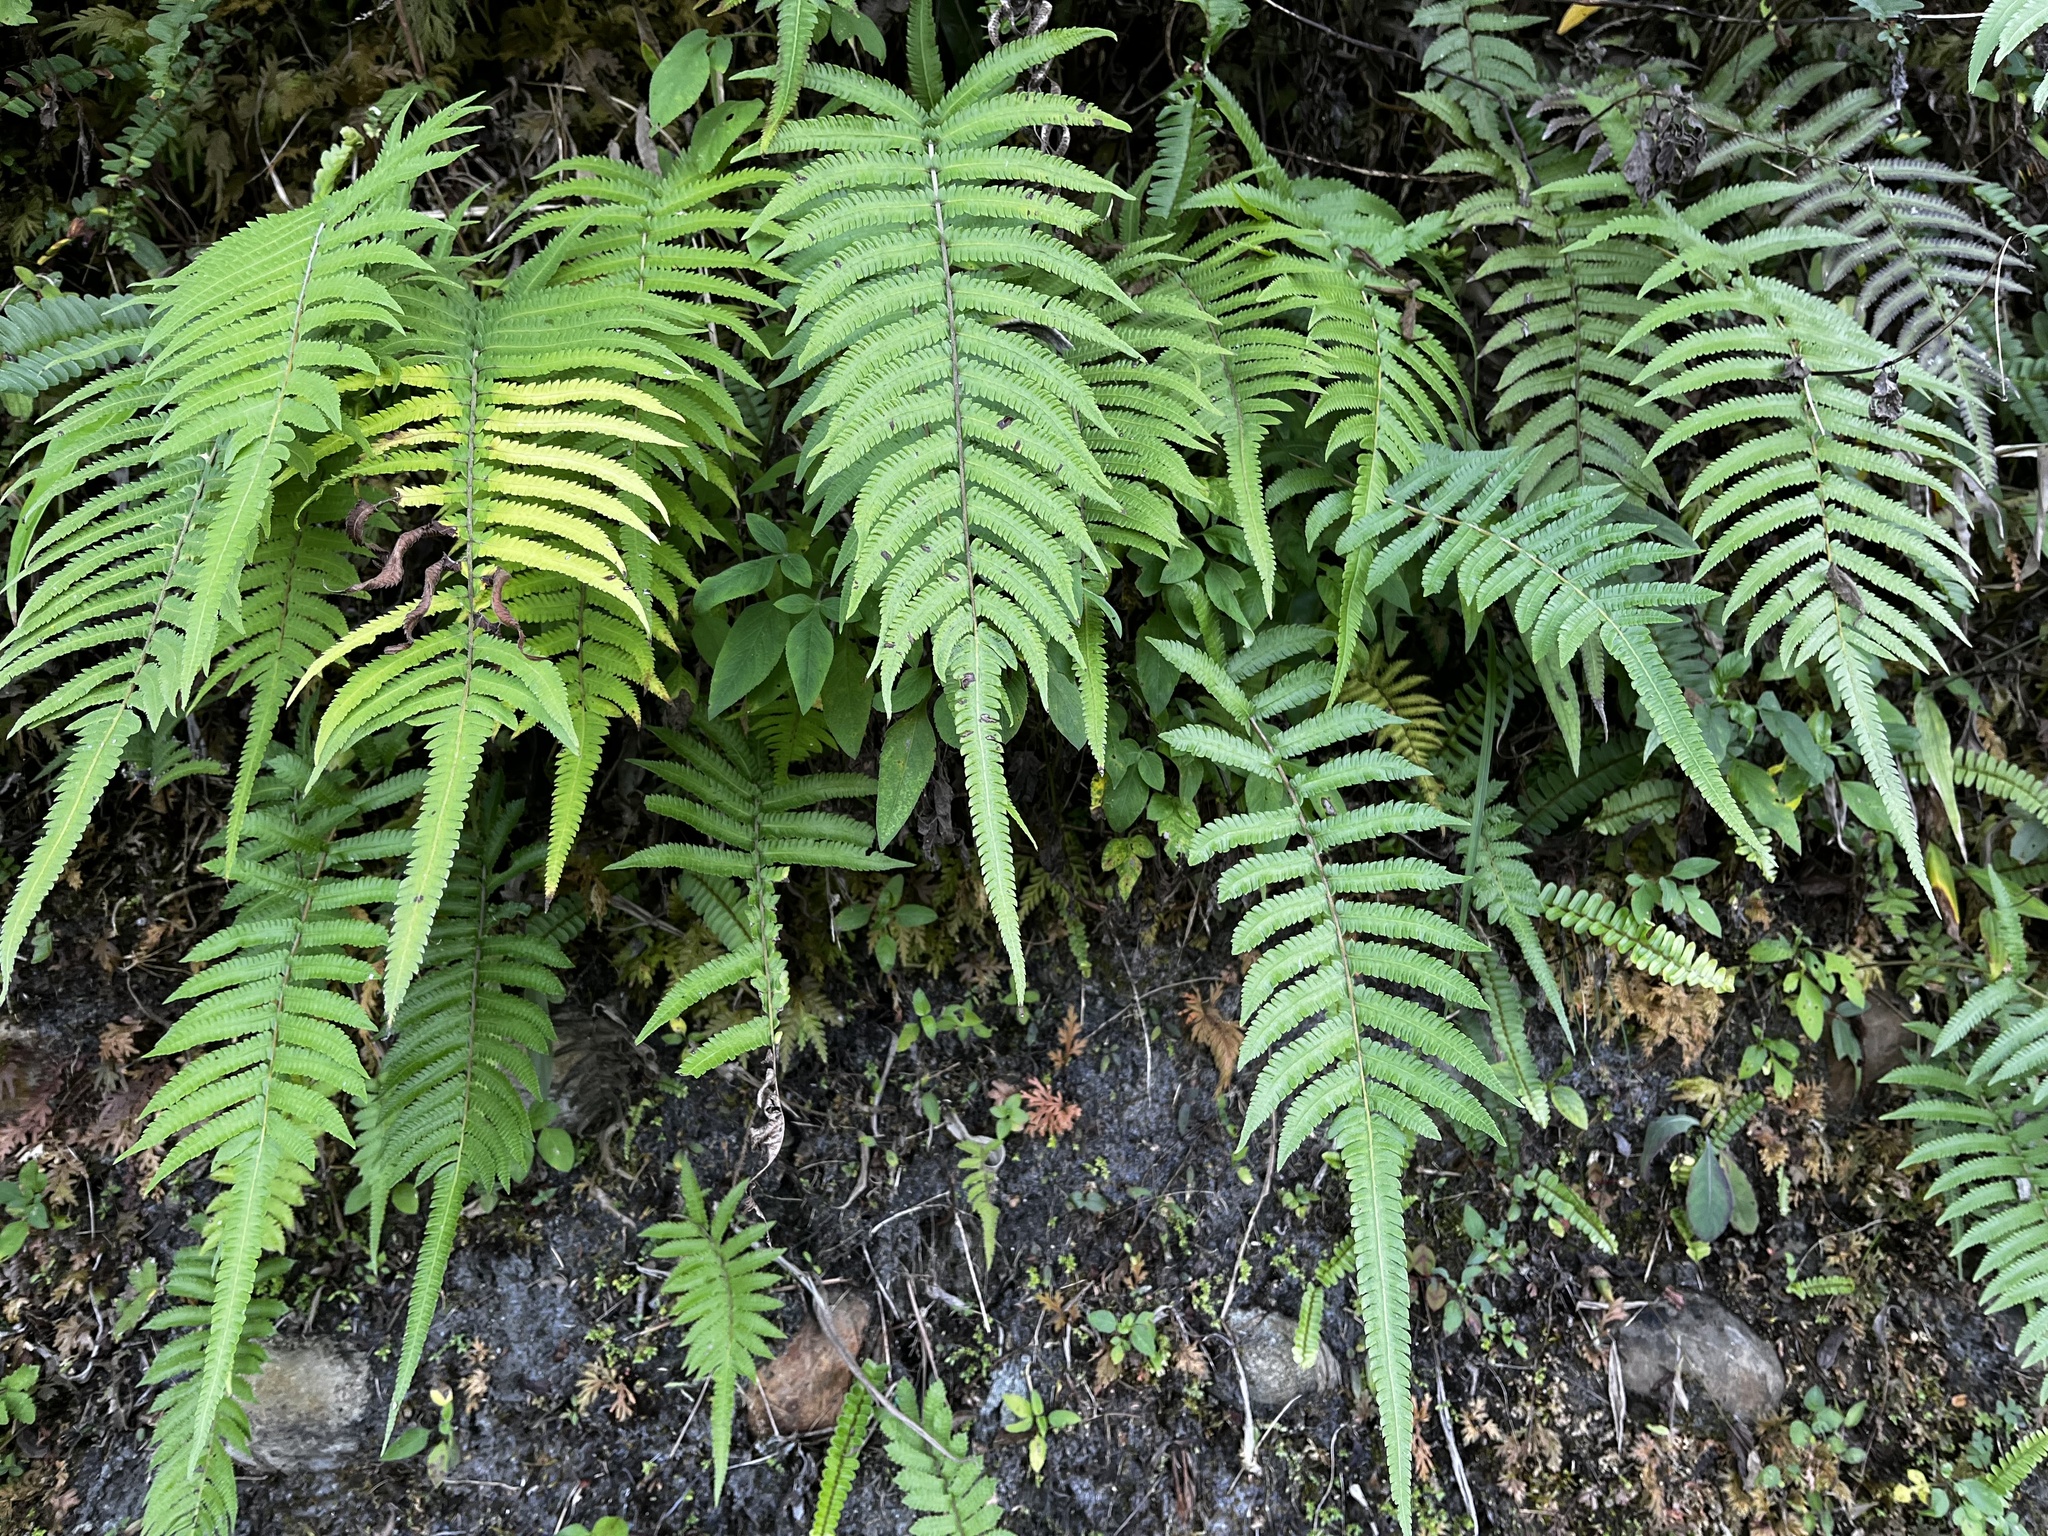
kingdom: Plantae
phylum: Tracheophyta
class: Polypodiopsida
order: Polypodiales
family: Thelypteridaceae
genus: Christella
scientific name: Christella acuminata
